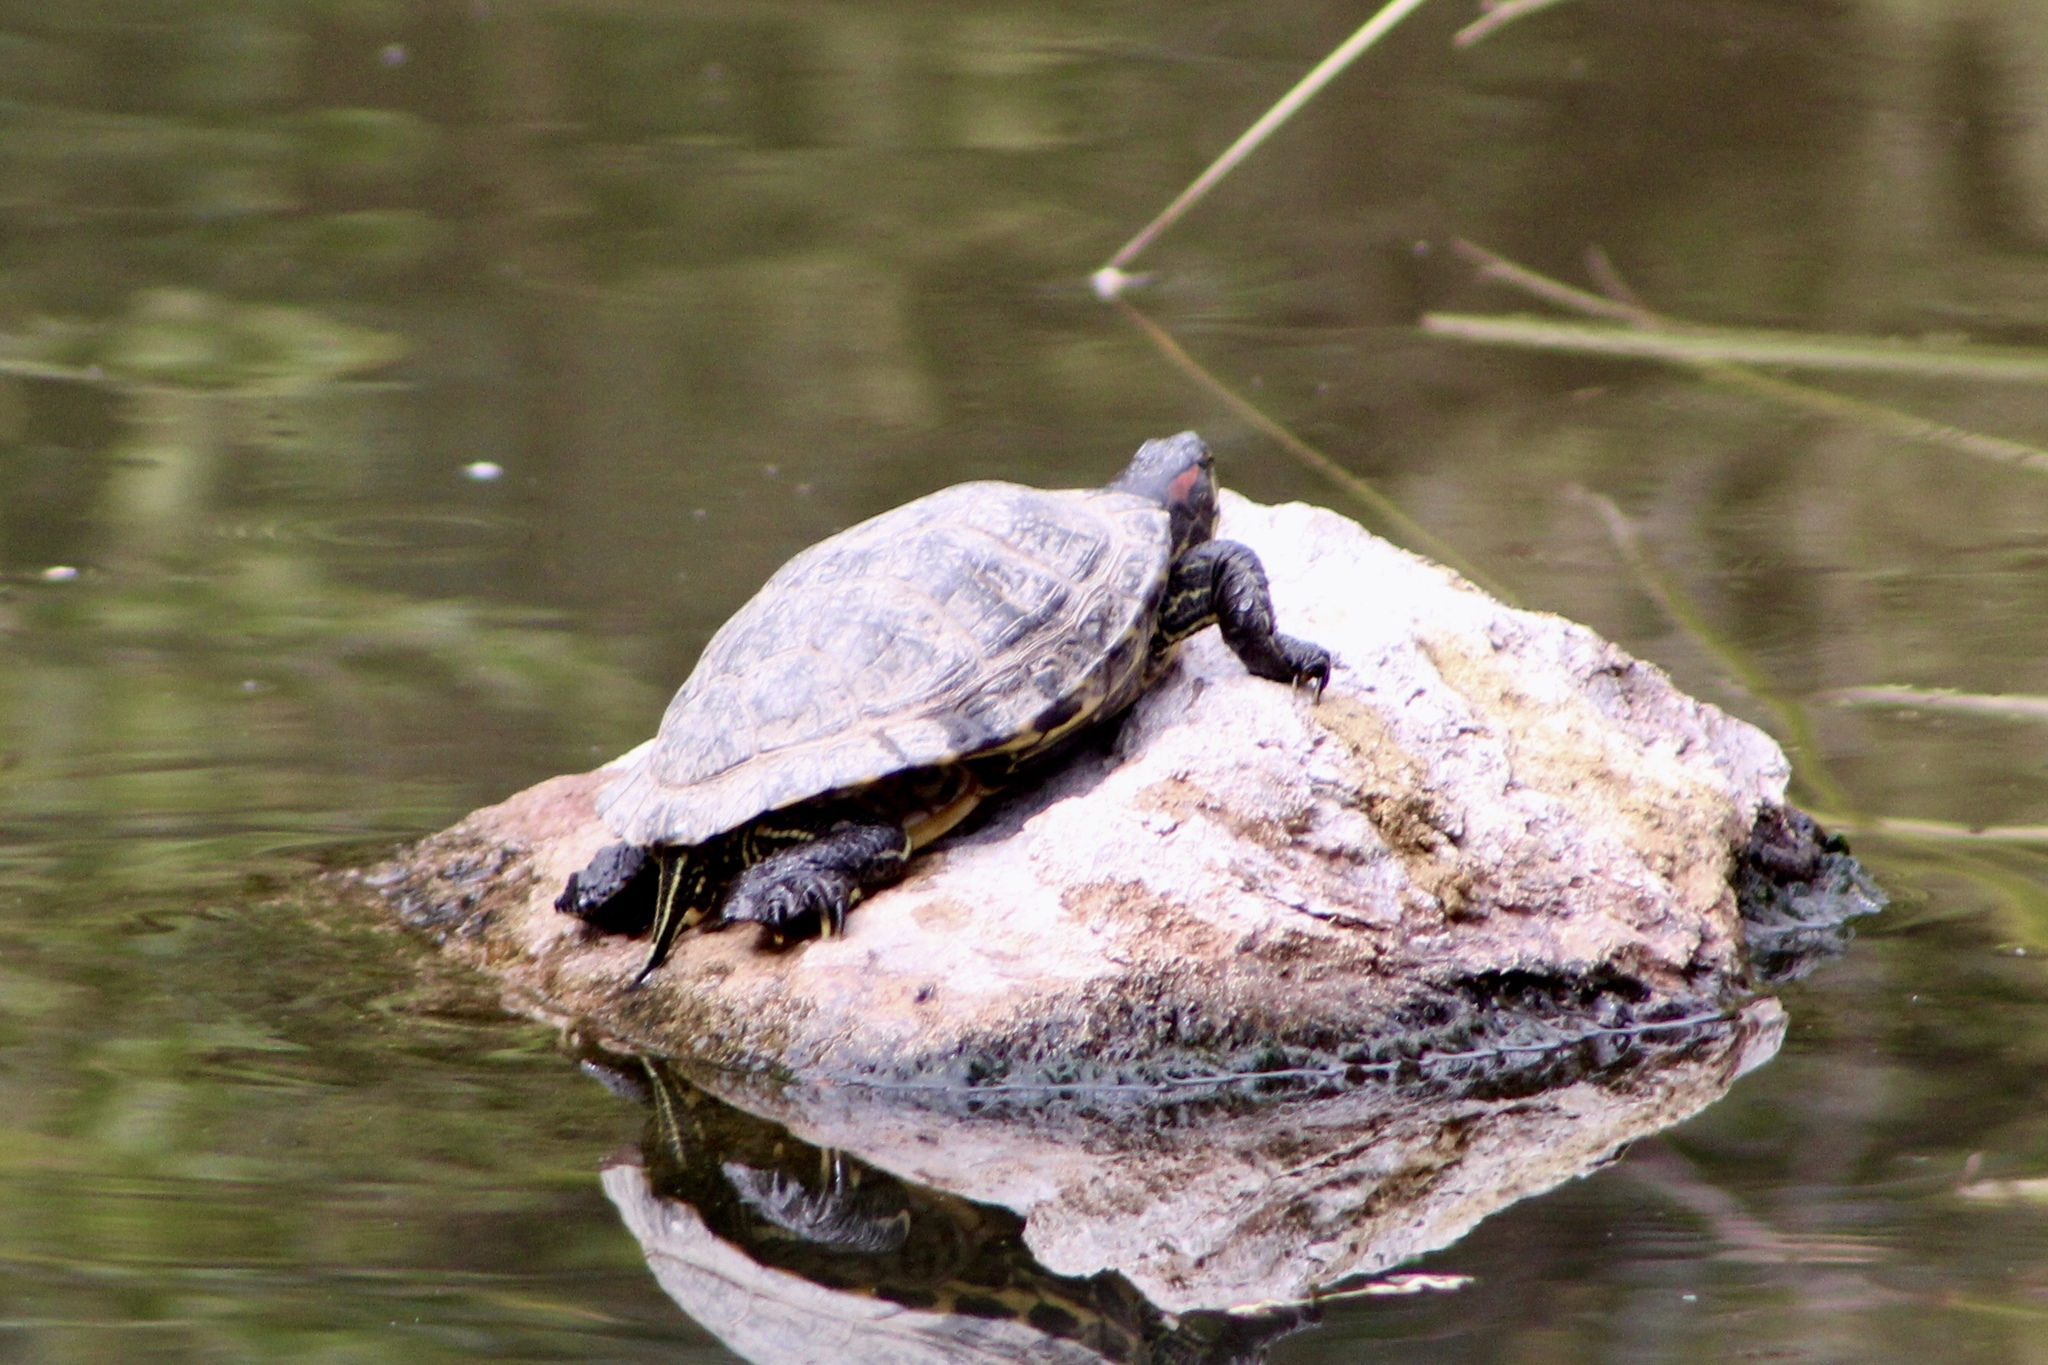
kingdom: Animalia
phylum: Chordata
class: Testudines
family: Emydidae
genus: Trachemys
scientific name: Trachemys scripta
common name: Slider
